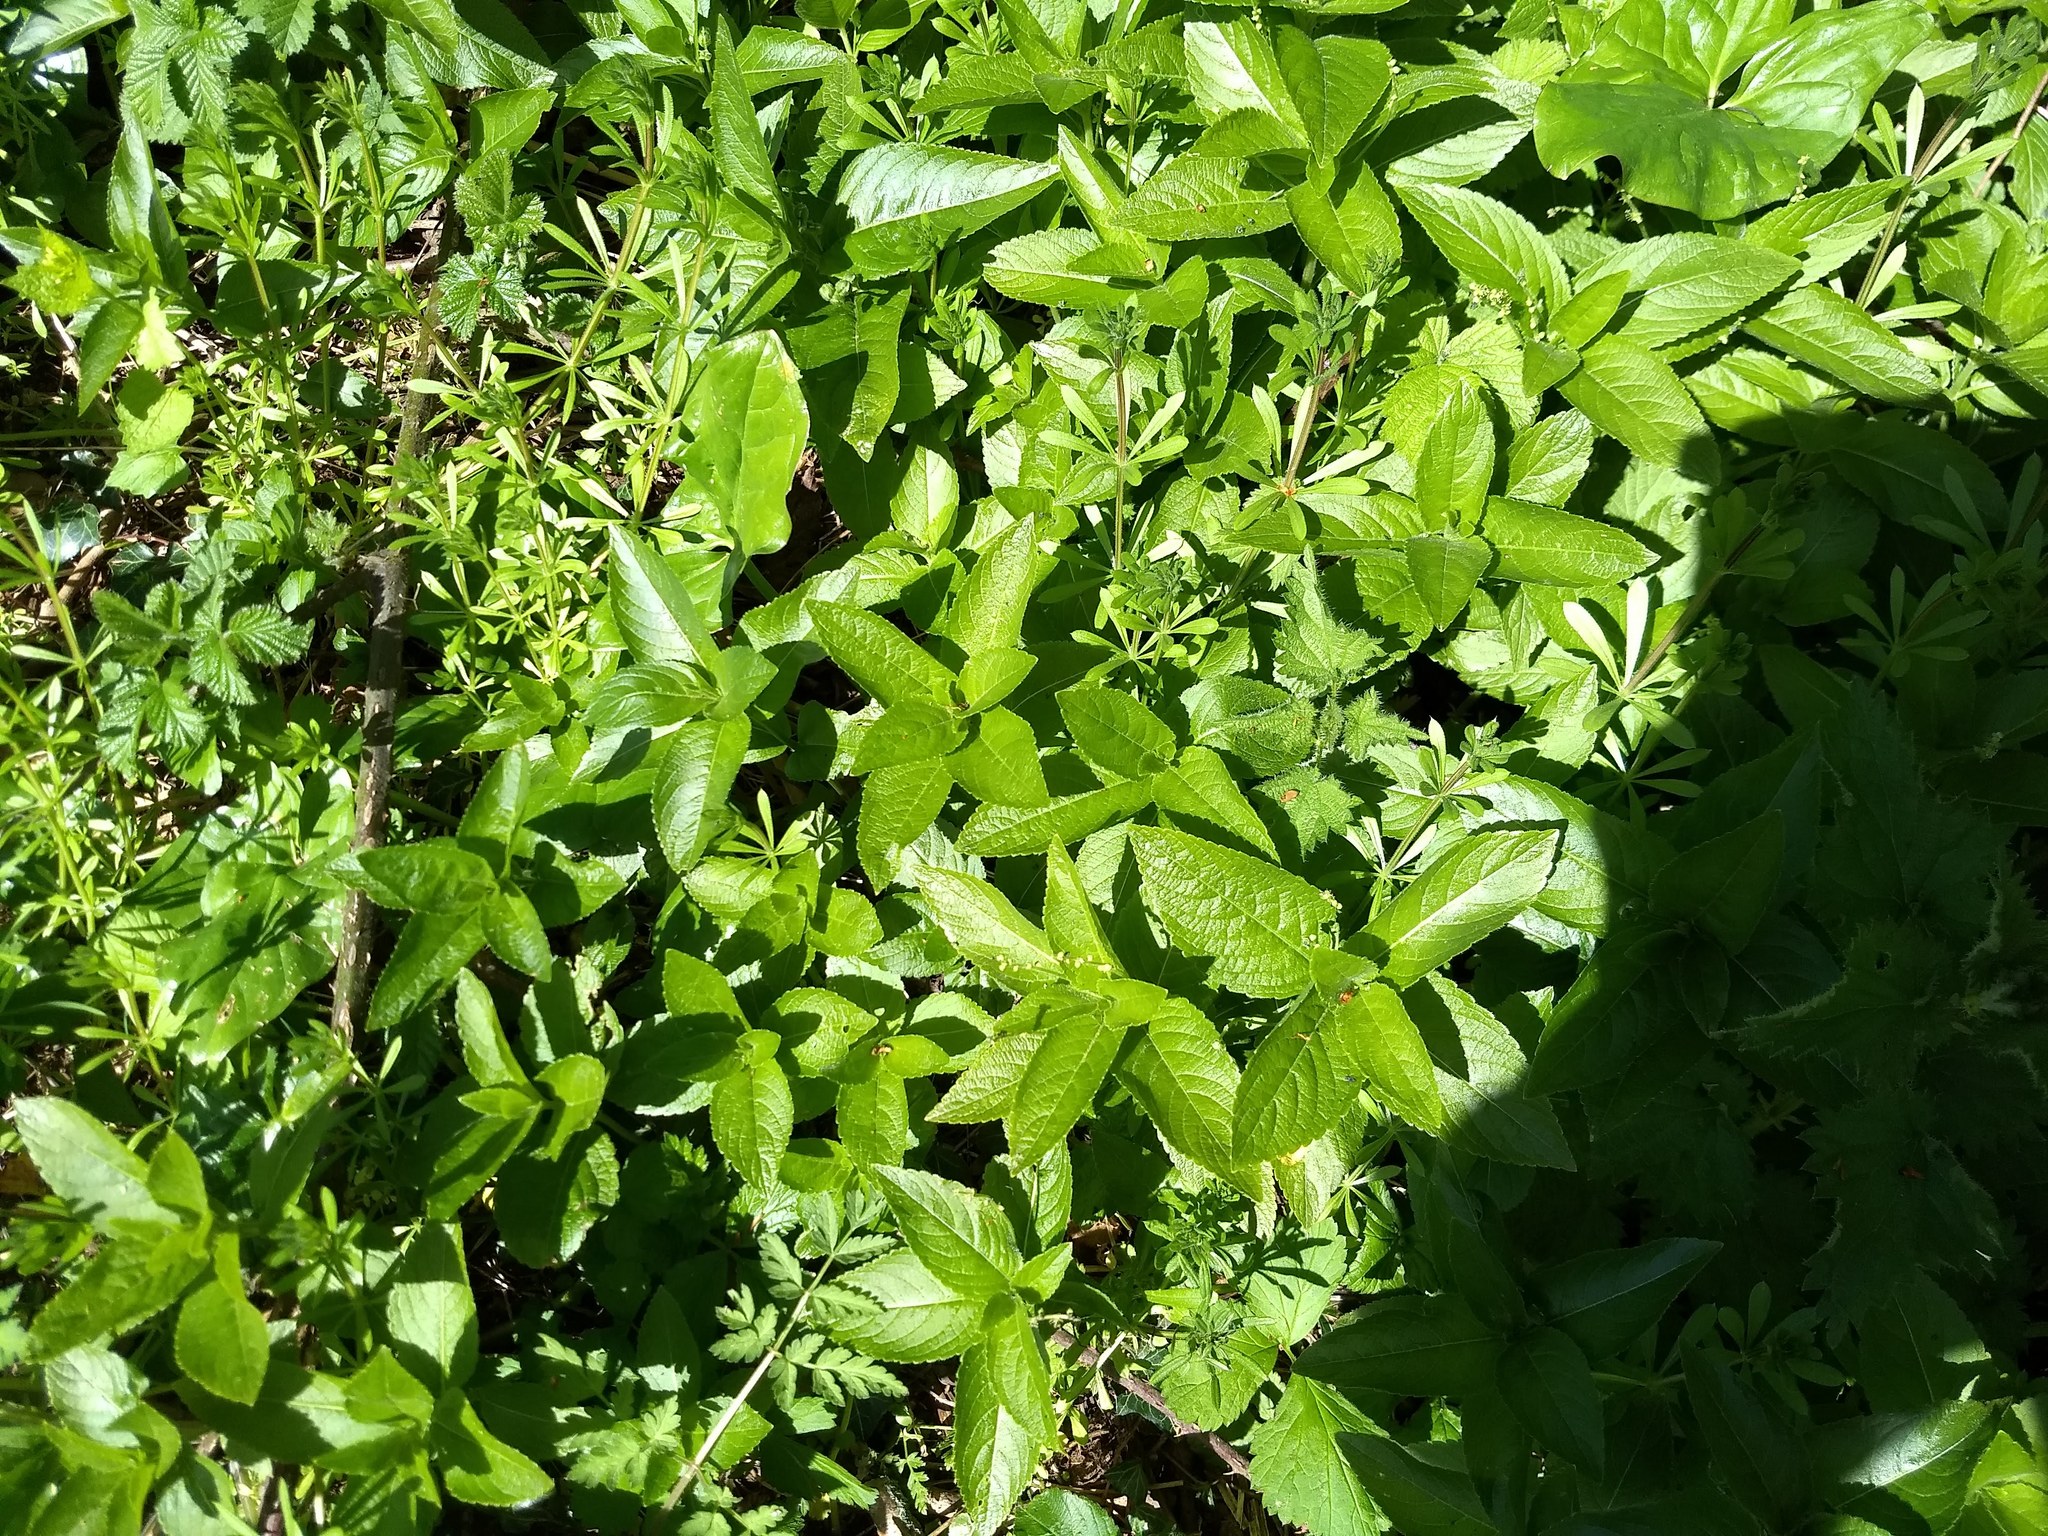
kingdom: Plantae
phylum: Tracheophyta
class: Magnoliopsida
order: Malpighiales
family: Euphorbiaceae
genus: Mercurialis
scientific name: Mercurialis perennis
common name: Dog mercury
